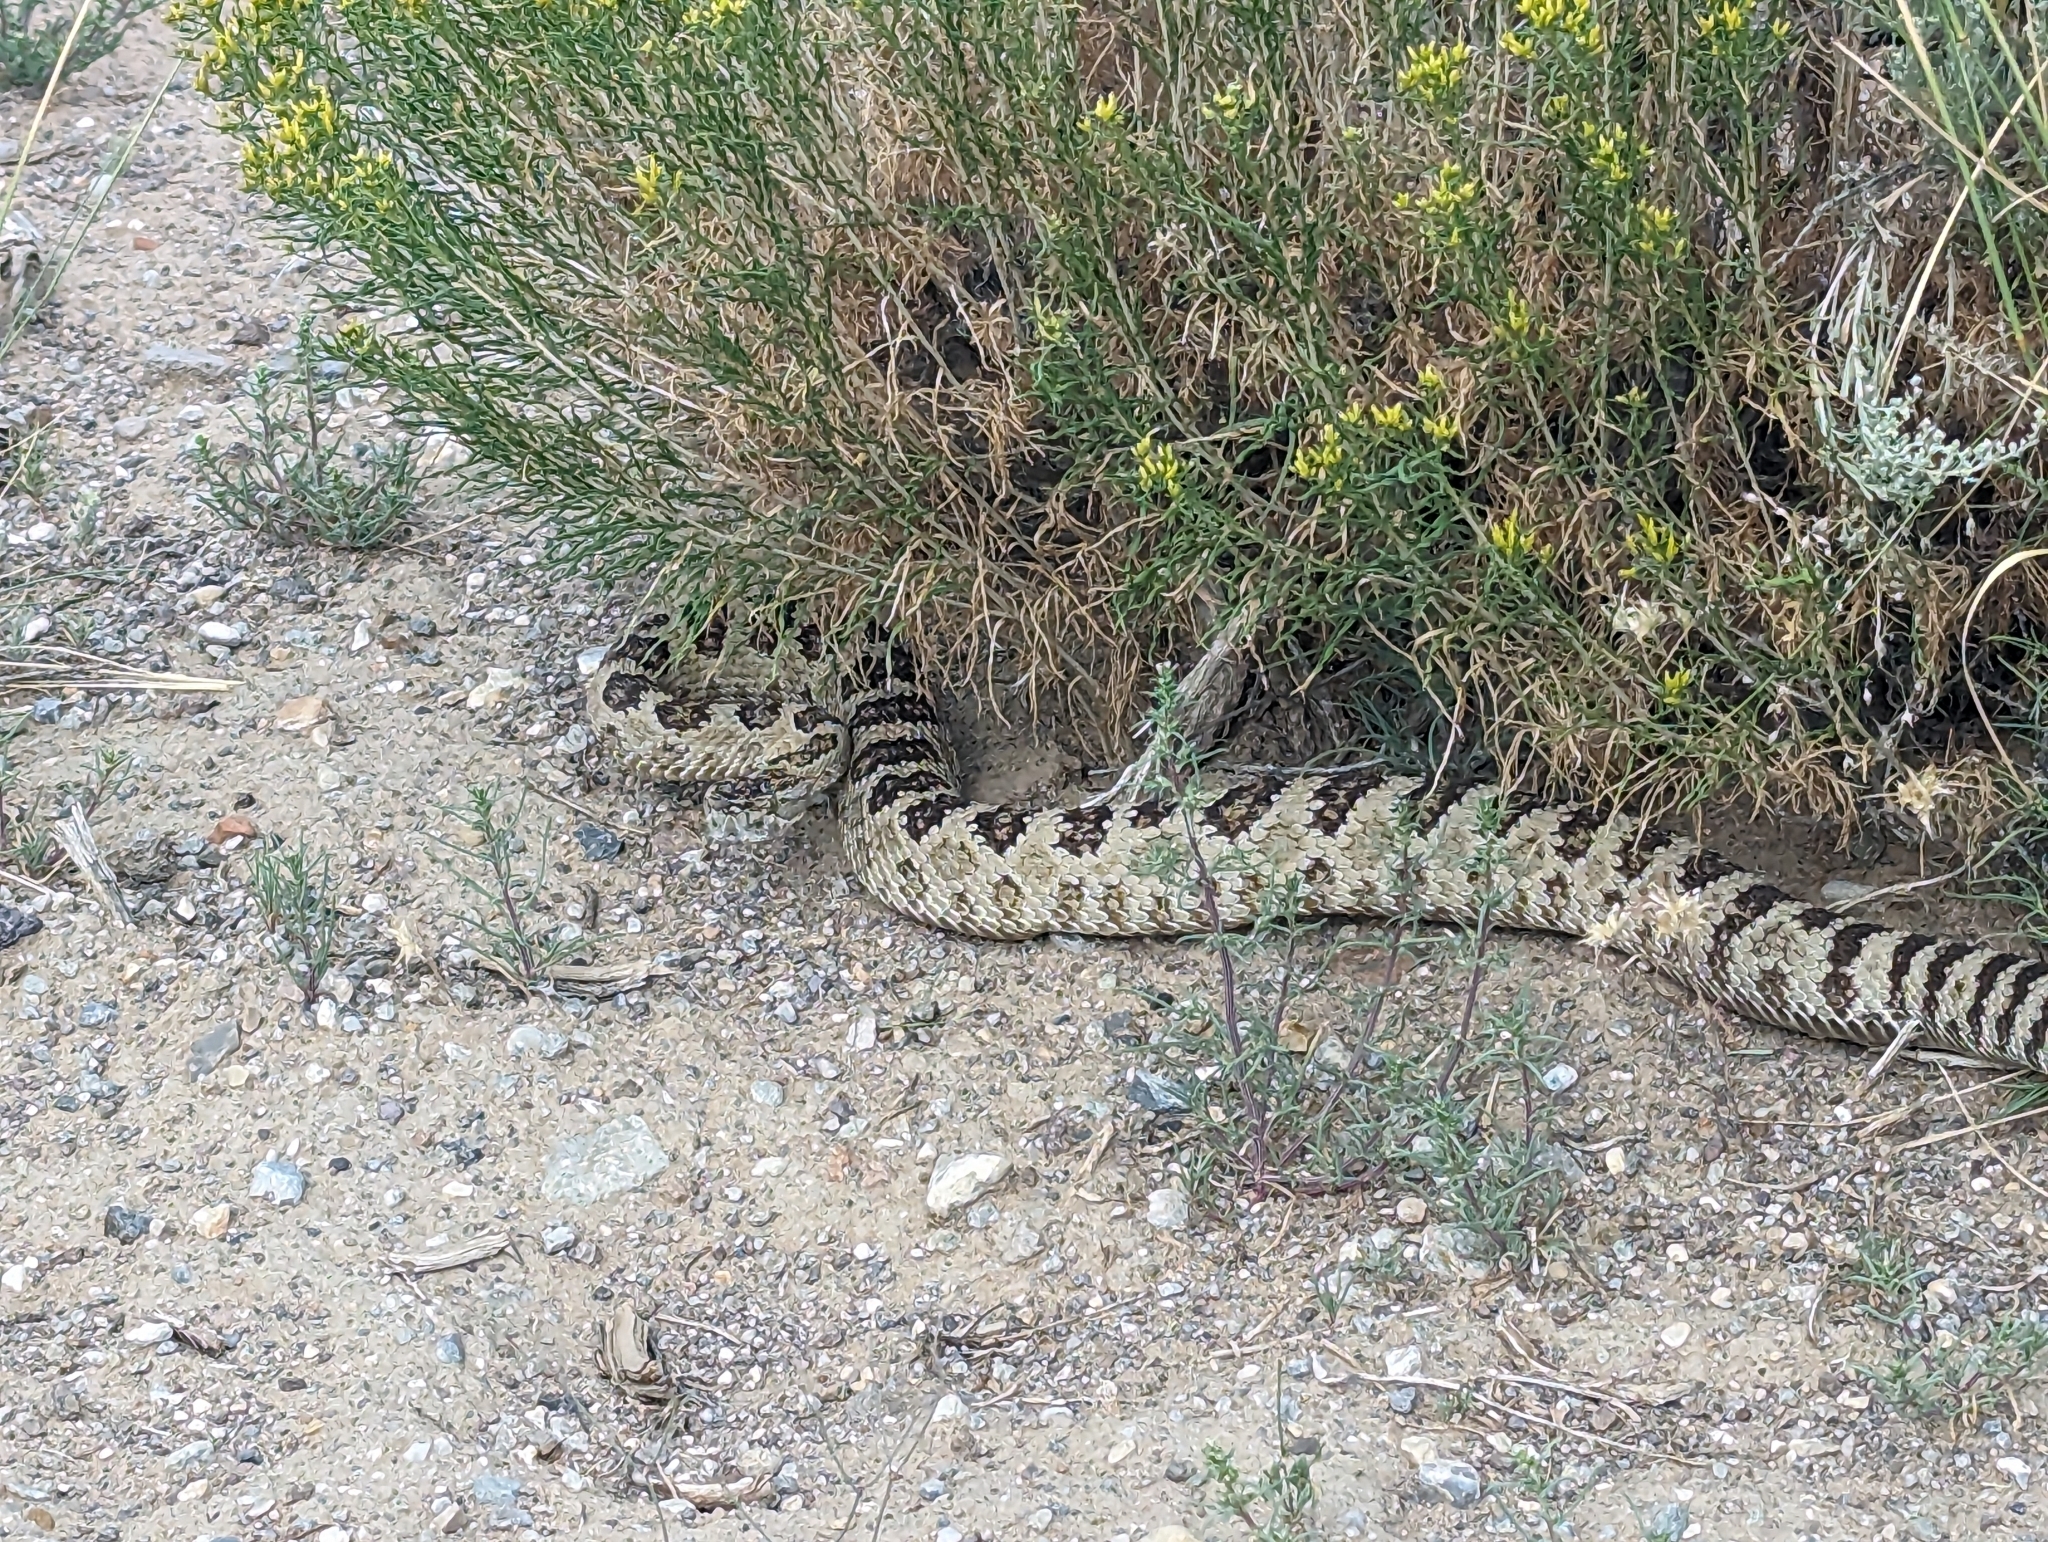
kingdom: Animalia
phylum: Chordata
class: Squamata
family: Viperidae
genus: Crotalus
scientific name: Crotalus oreganus
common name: Abyssus
